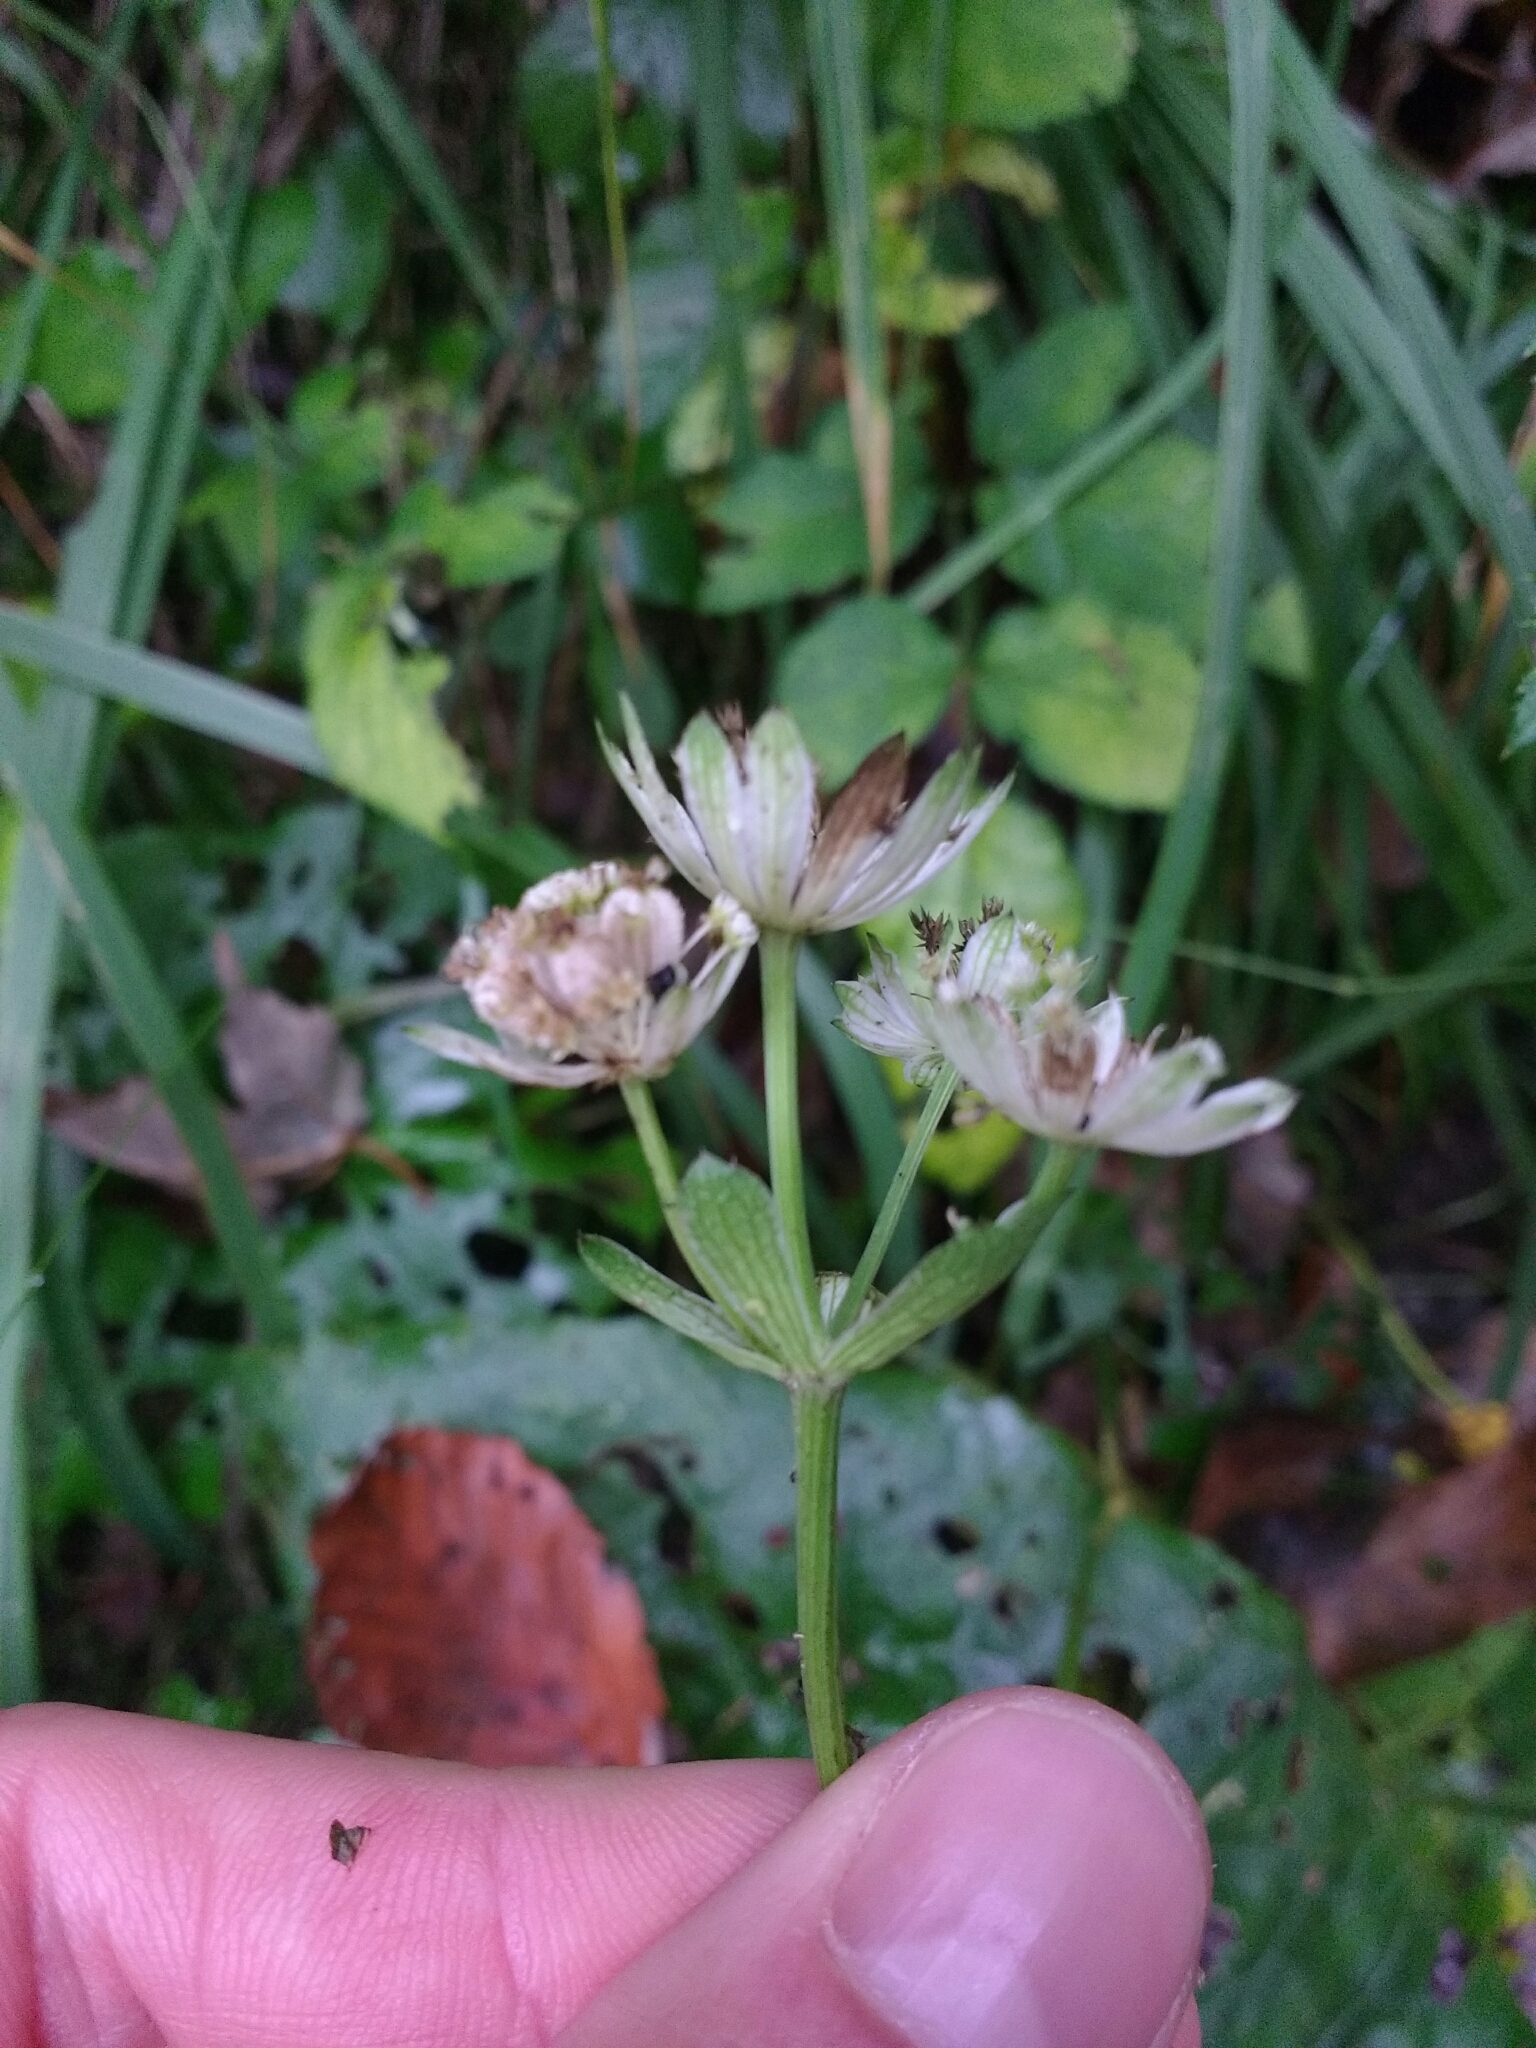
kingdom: Plantae
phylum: Tracheophyta
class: Magnoliopsida
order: Apiales
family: Apiaceae
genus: Astrantia
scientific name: Astrantia major
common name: Greater masterwort
